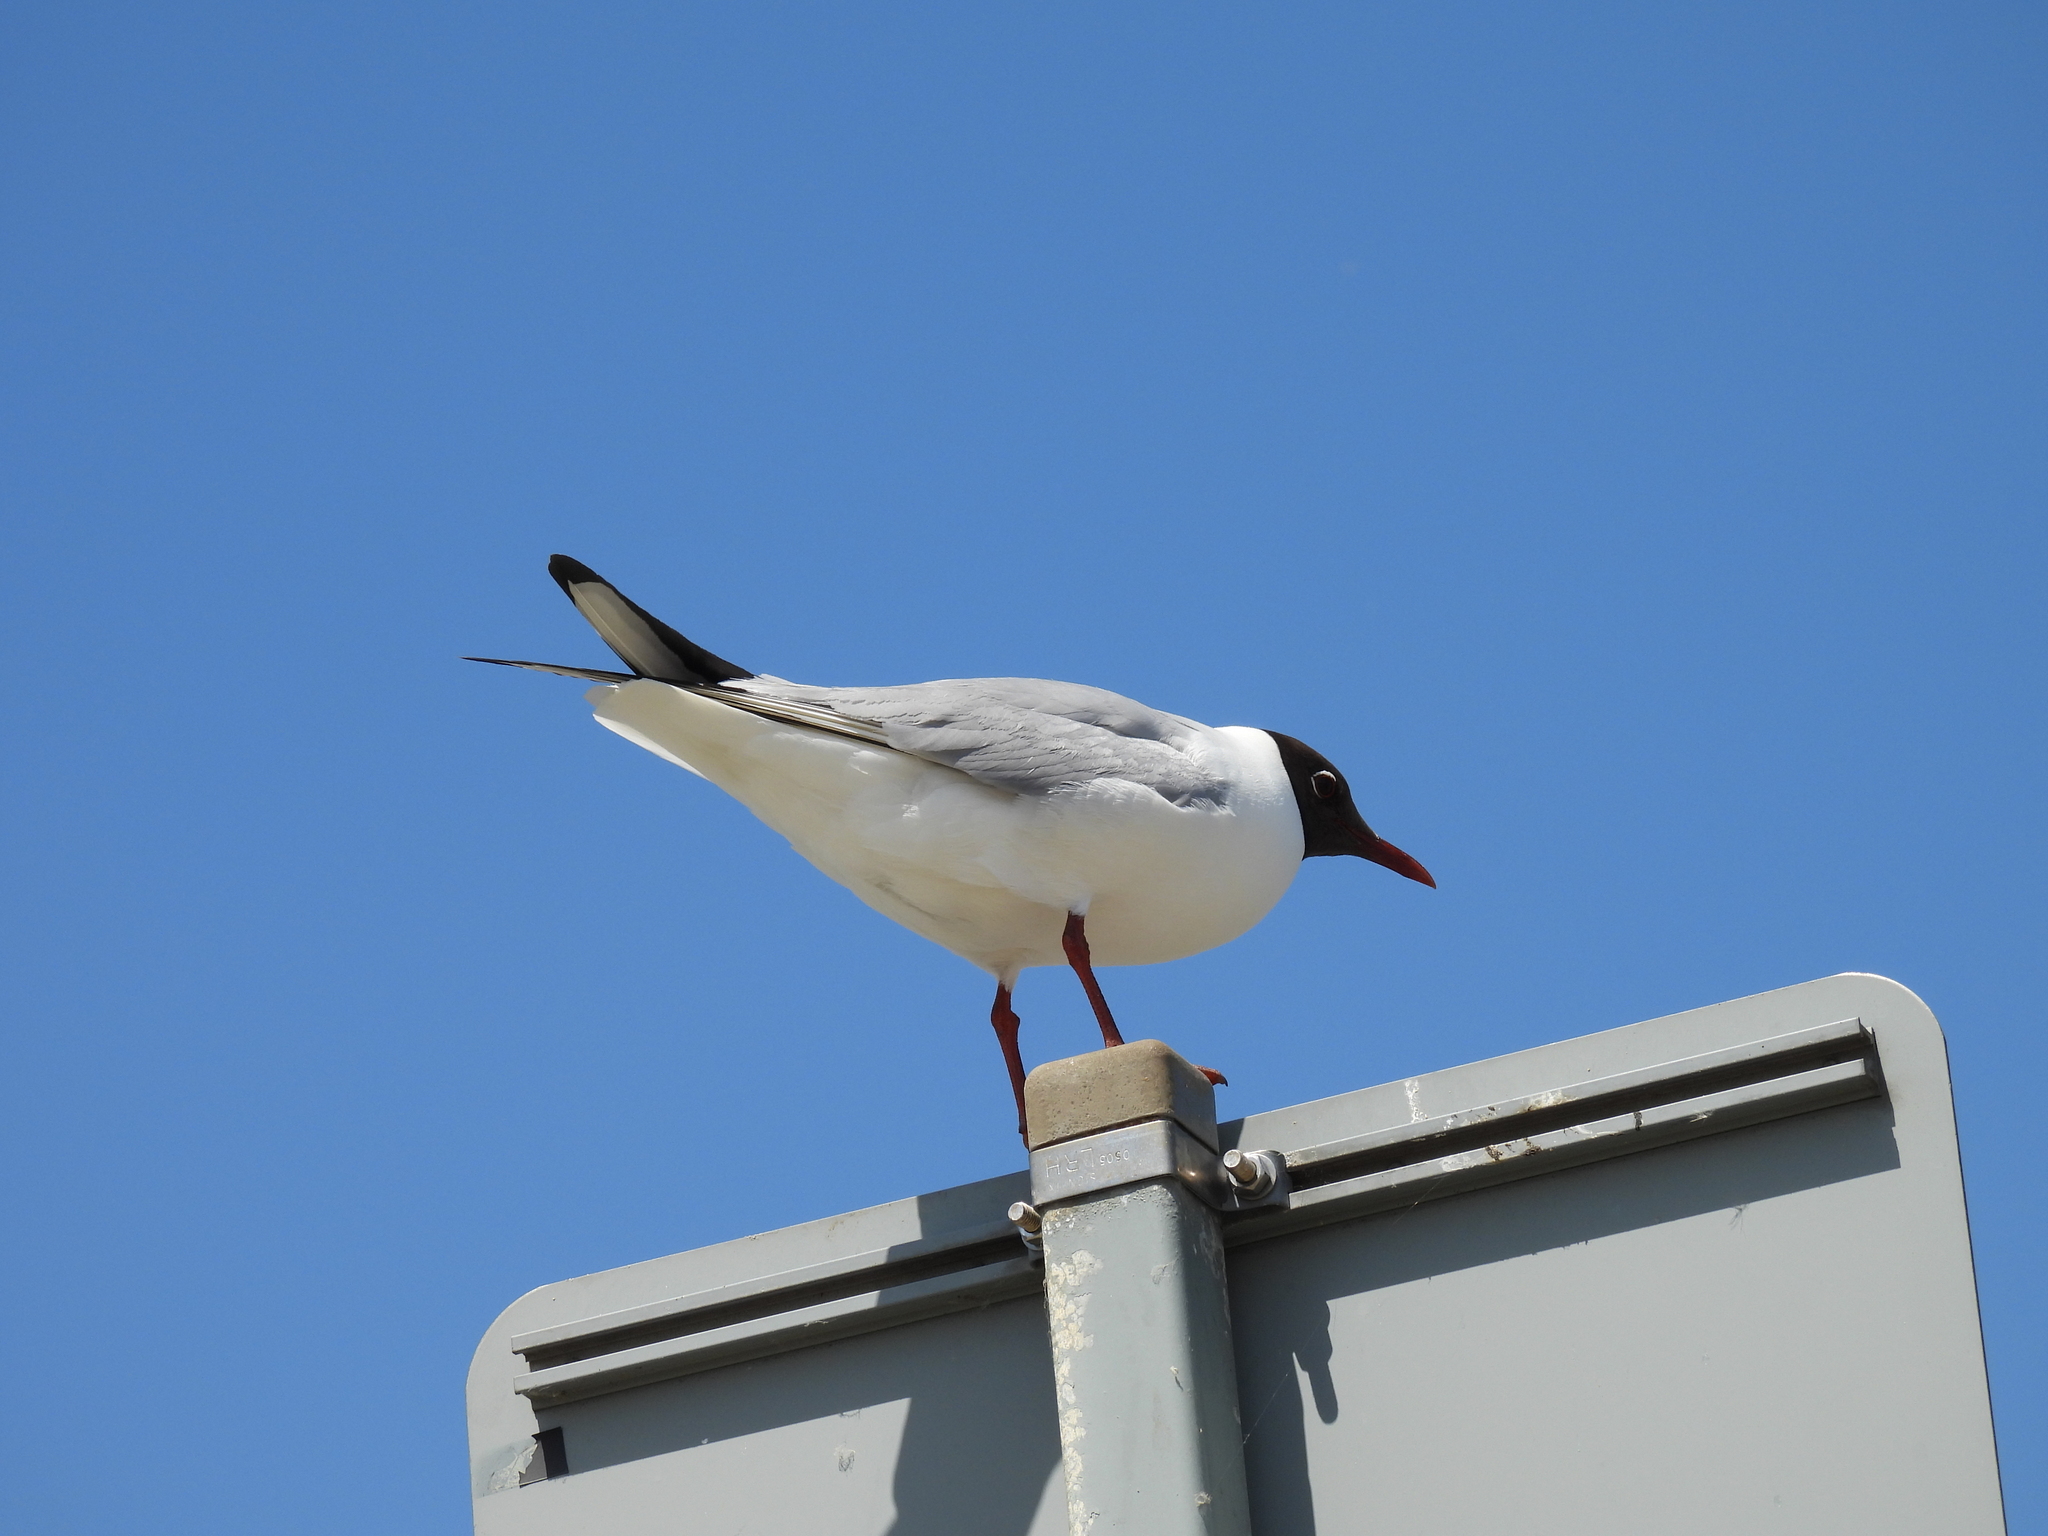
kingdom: Animalia
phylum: Chordata
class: Aves
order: Charadriiformes
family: Laridae
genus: Chroicocephalus
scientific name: Chroicocephalus ridibundus
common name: Black-headed gull
